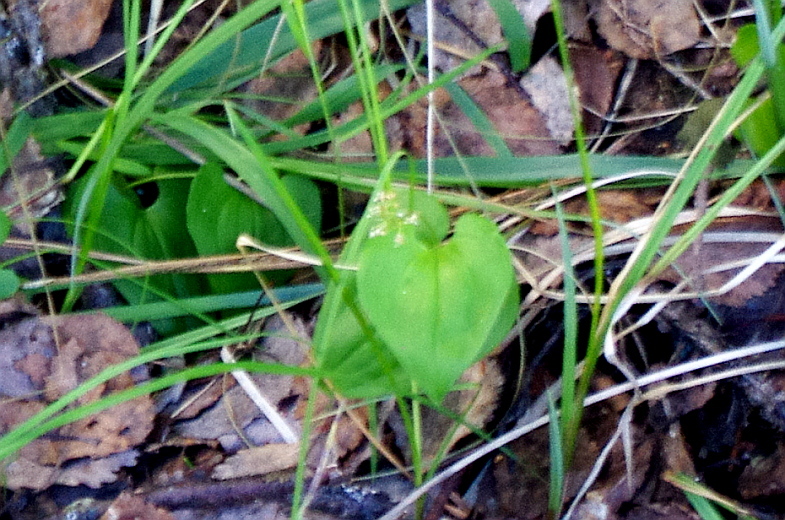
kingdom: Plantae
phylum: Tracheophyta
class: Liliopsida
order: Asparagales
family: Asparagaceae
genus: Maianthemum
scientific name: Maianthemum bifolium
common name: May lily
